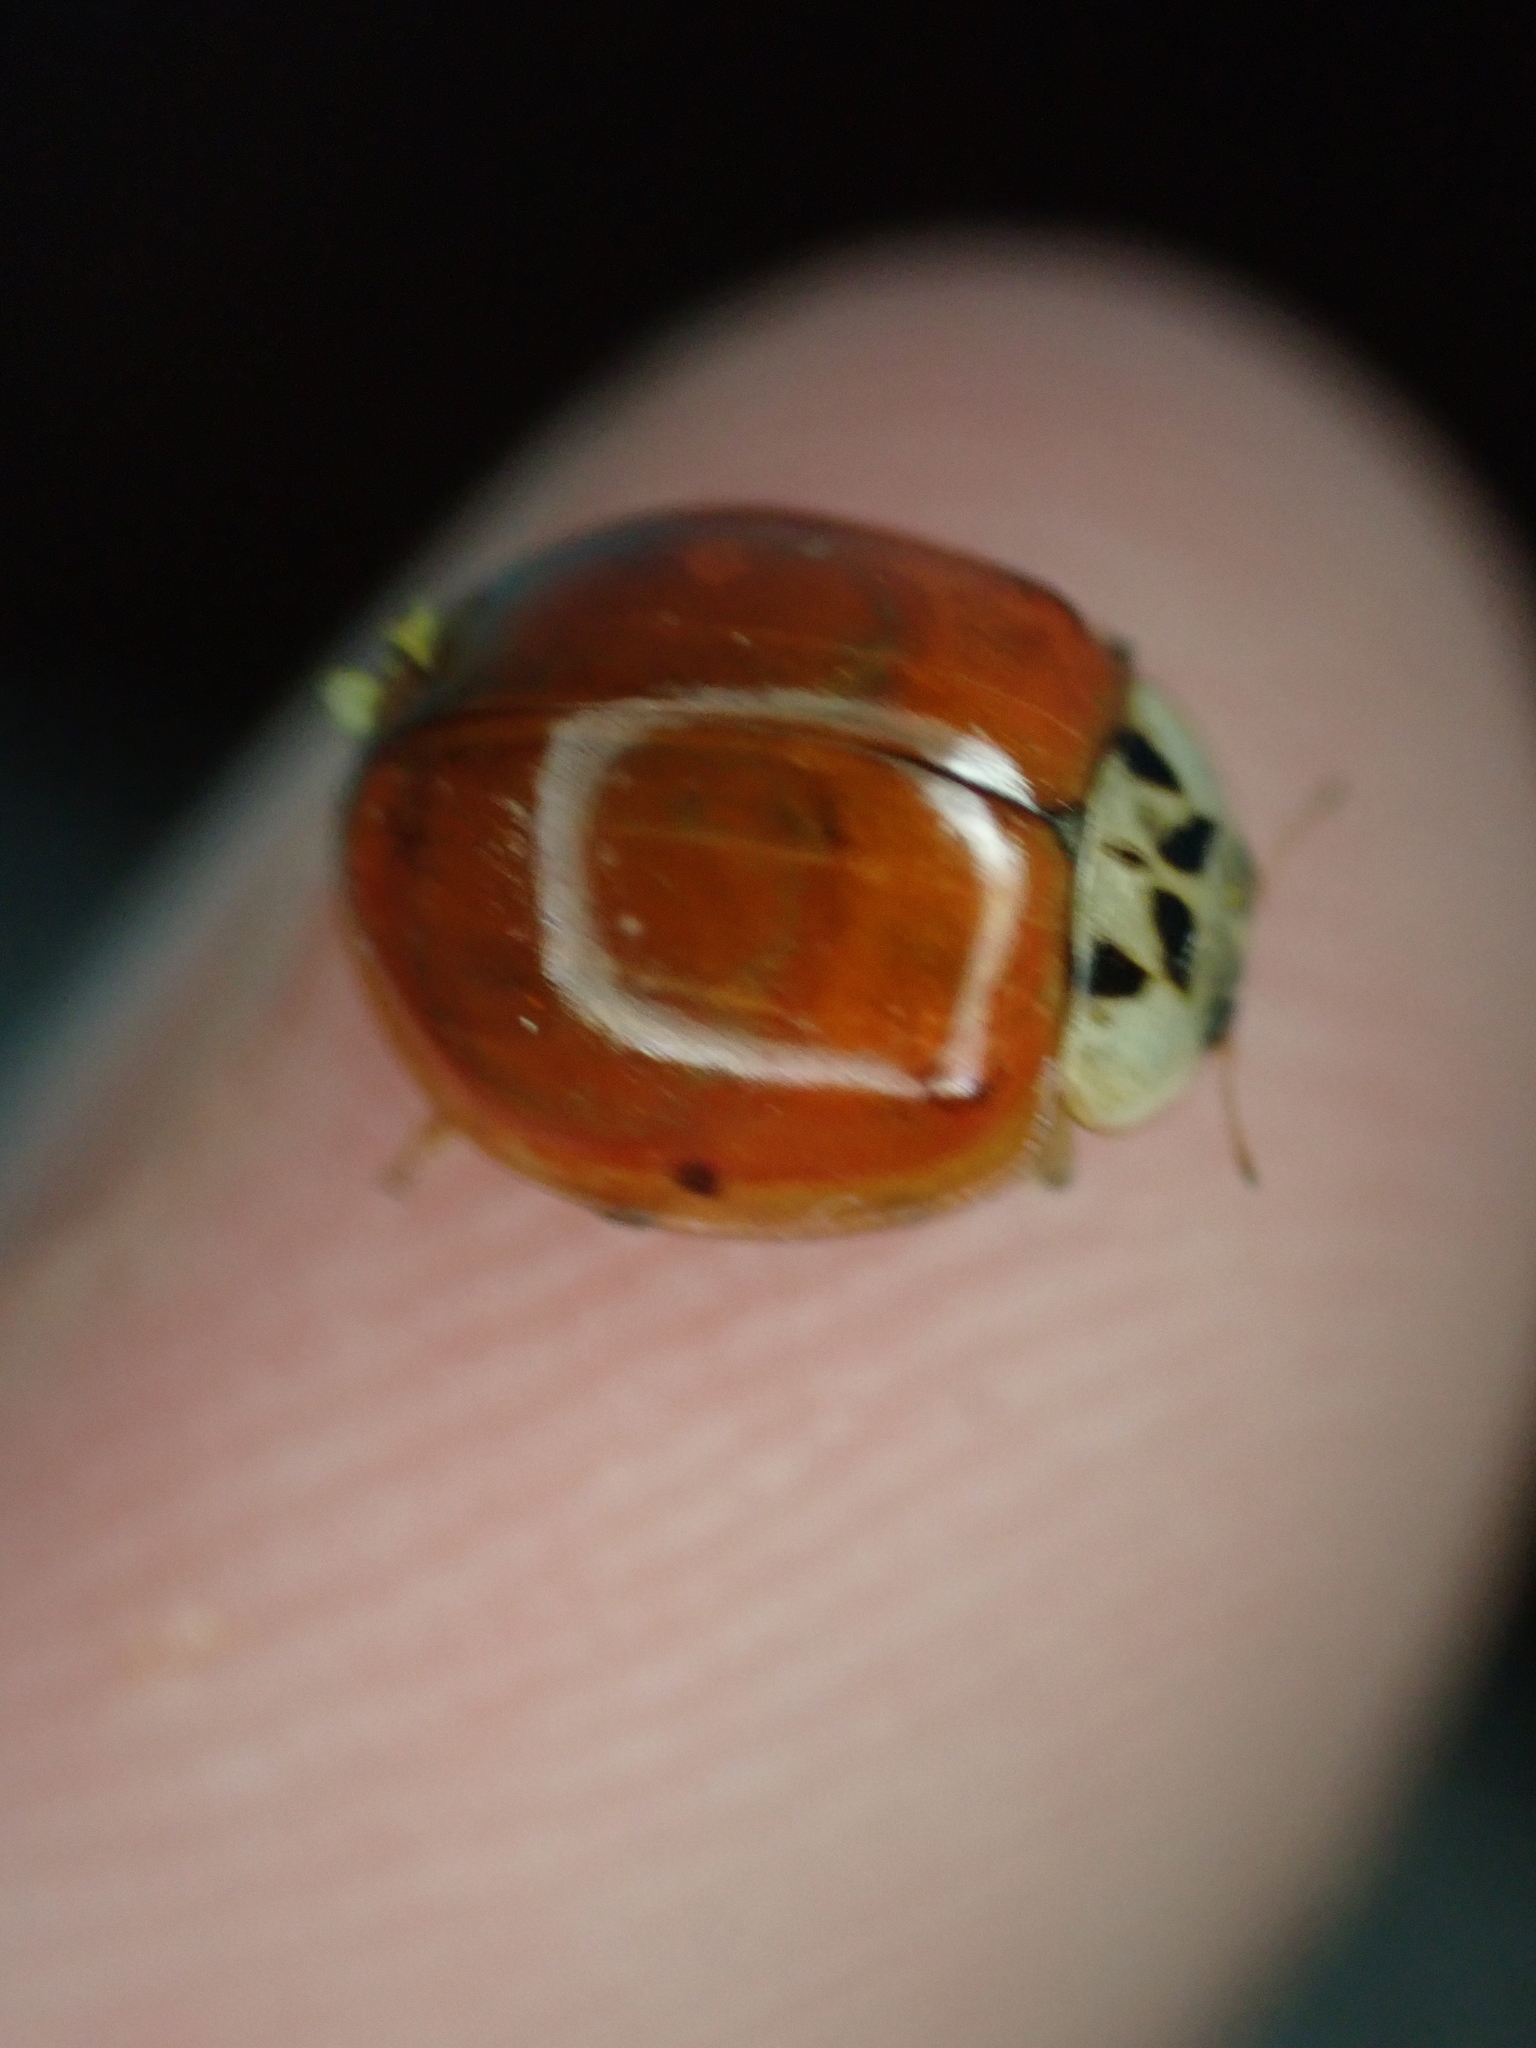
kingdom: Animalia
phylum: Arthropoda
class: Insecta
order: Coleoptera
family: Coccinellidae
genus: Harmonia
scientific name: Harmonia axyridis
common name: Harlequin ladybird
